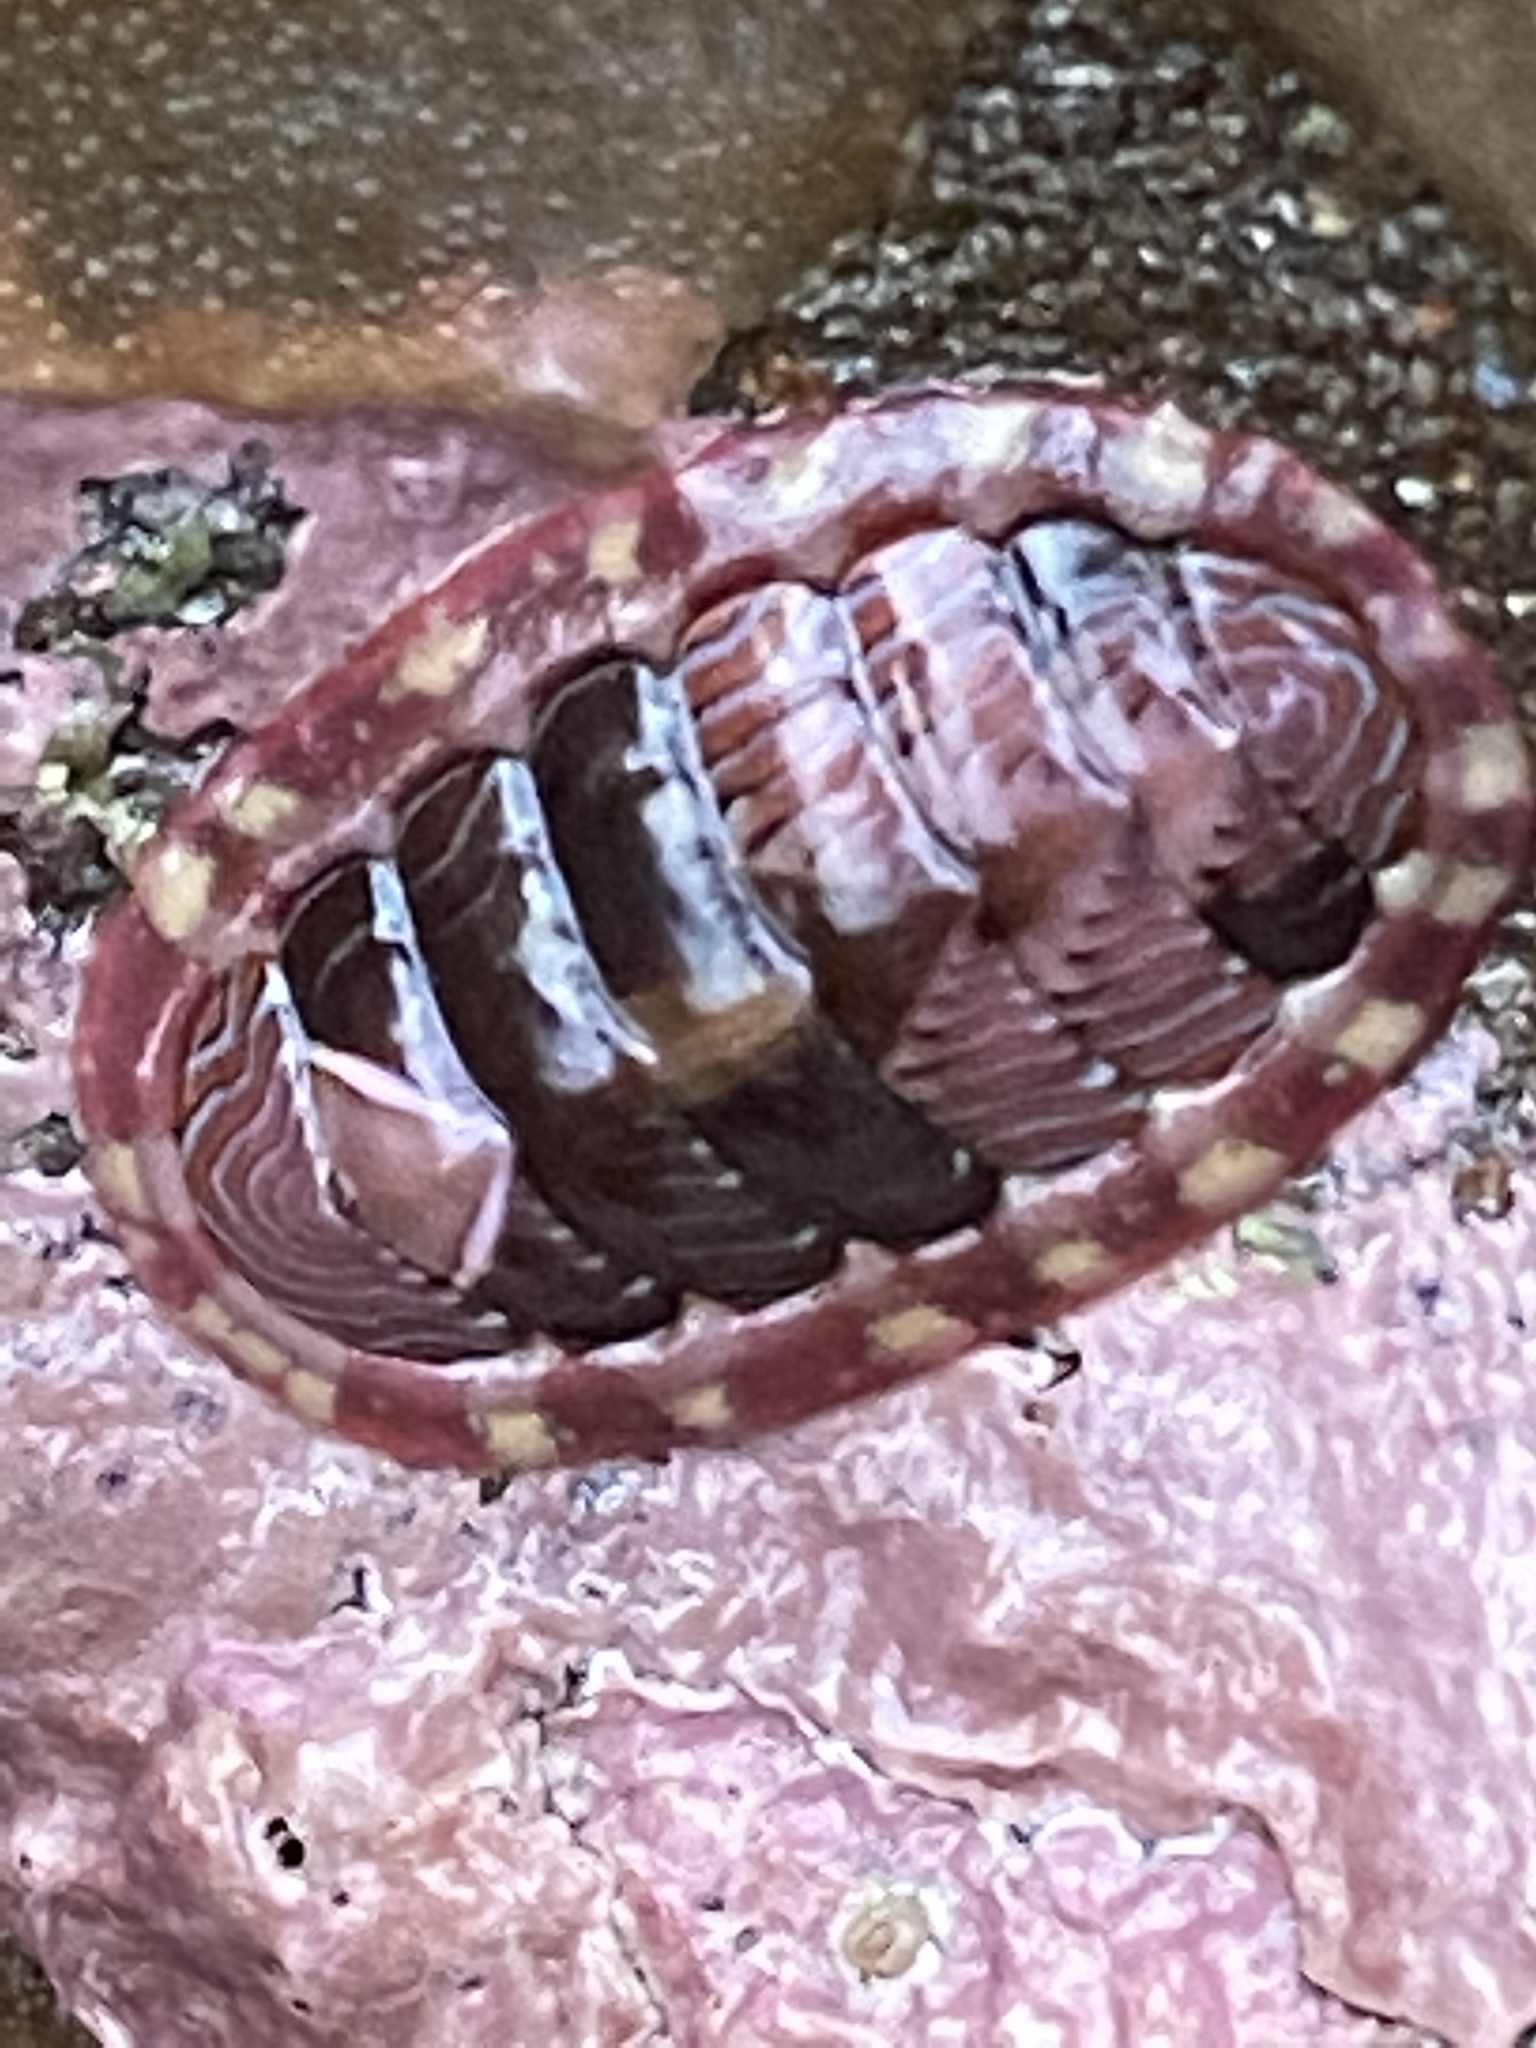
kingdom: Animalia
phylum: Mollusca
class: Polyplacophora
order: Chitonida
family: Tonicellidae
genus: Tonicella
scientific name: Tonicella lineata
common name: Lined chiton
